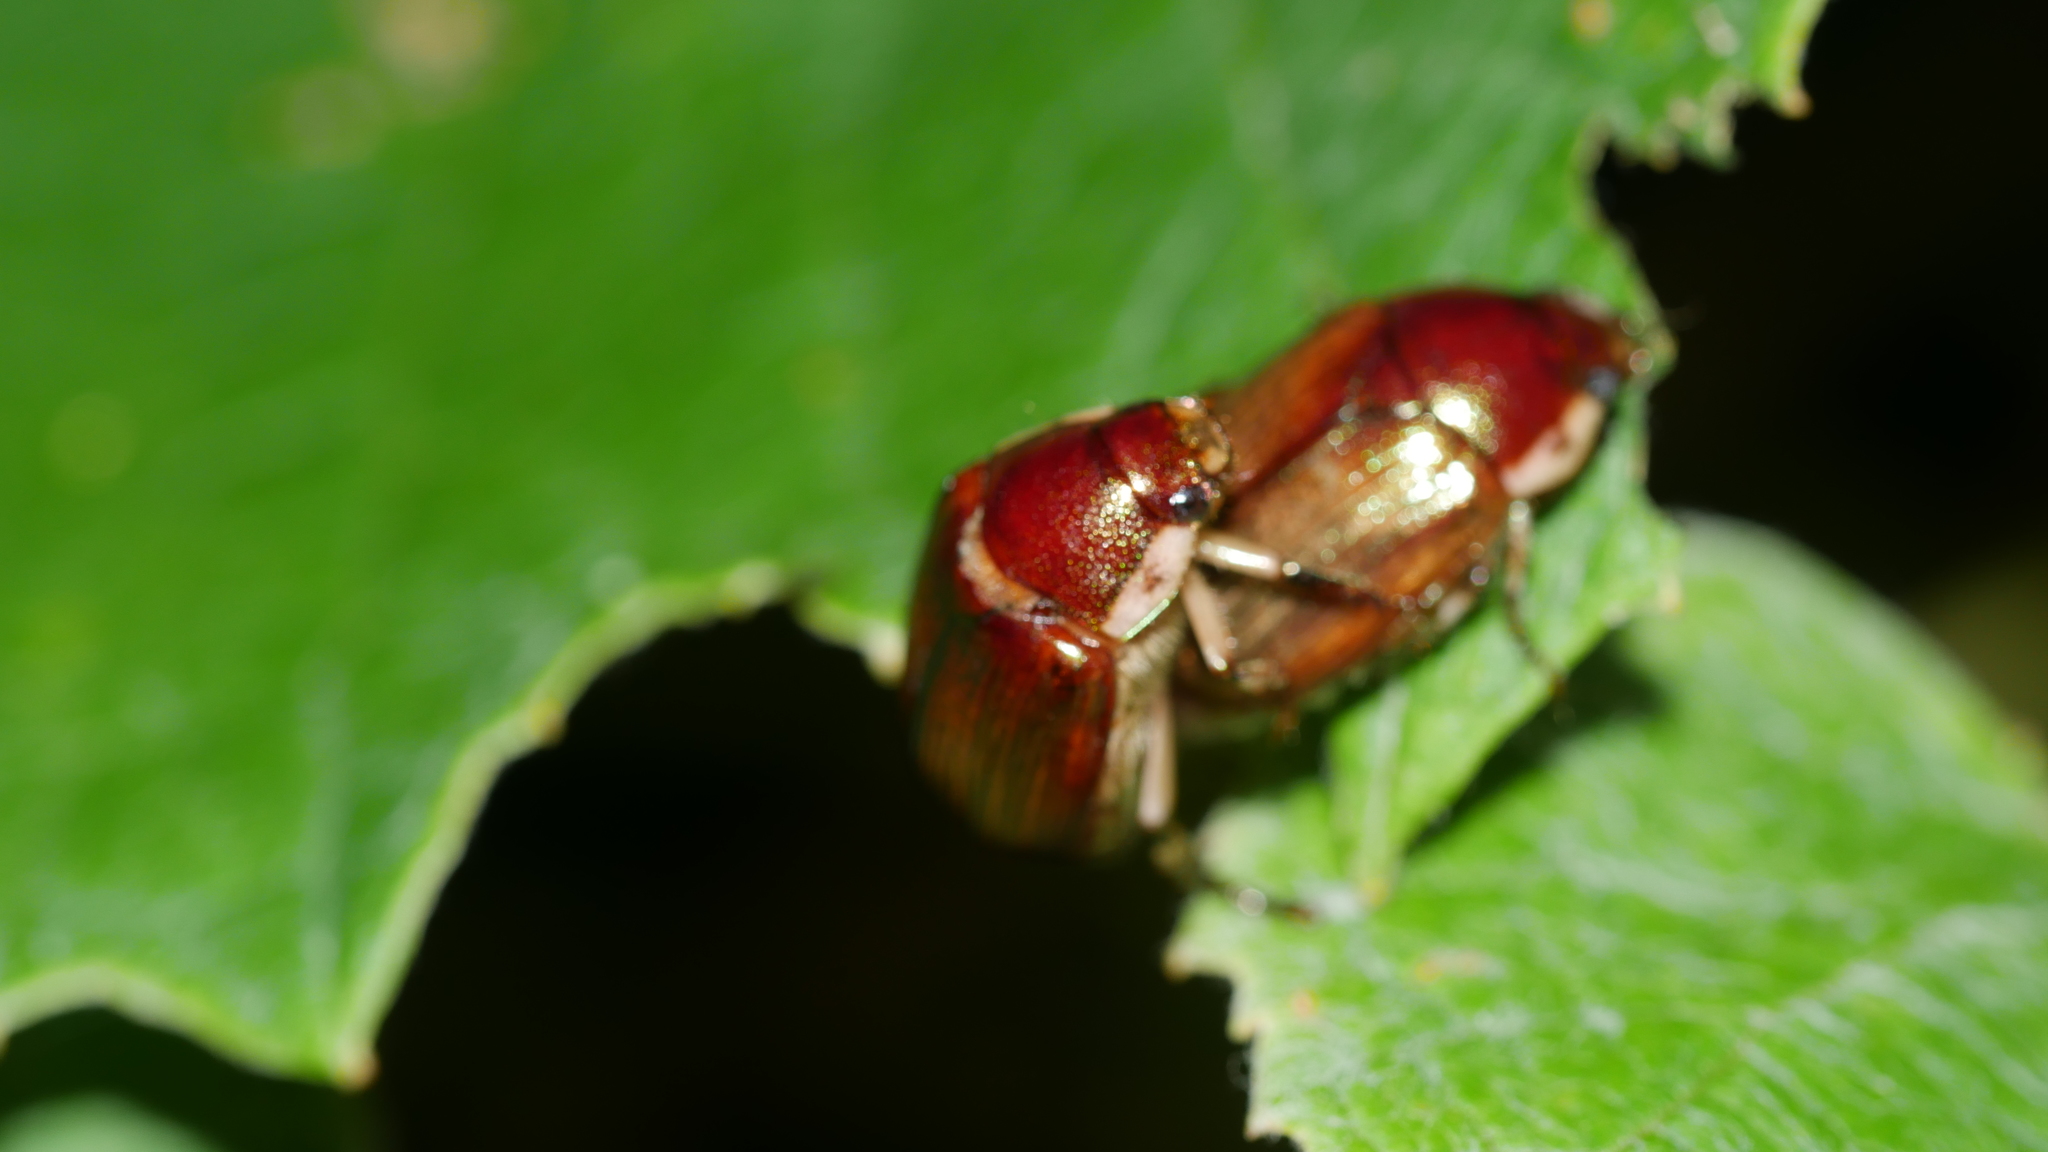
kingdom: Animalia
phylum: Arthropoda
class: Insecta
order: Coleoptera
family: Scarabaeidae
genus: Callistethus
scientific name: Callistethus marginatus
